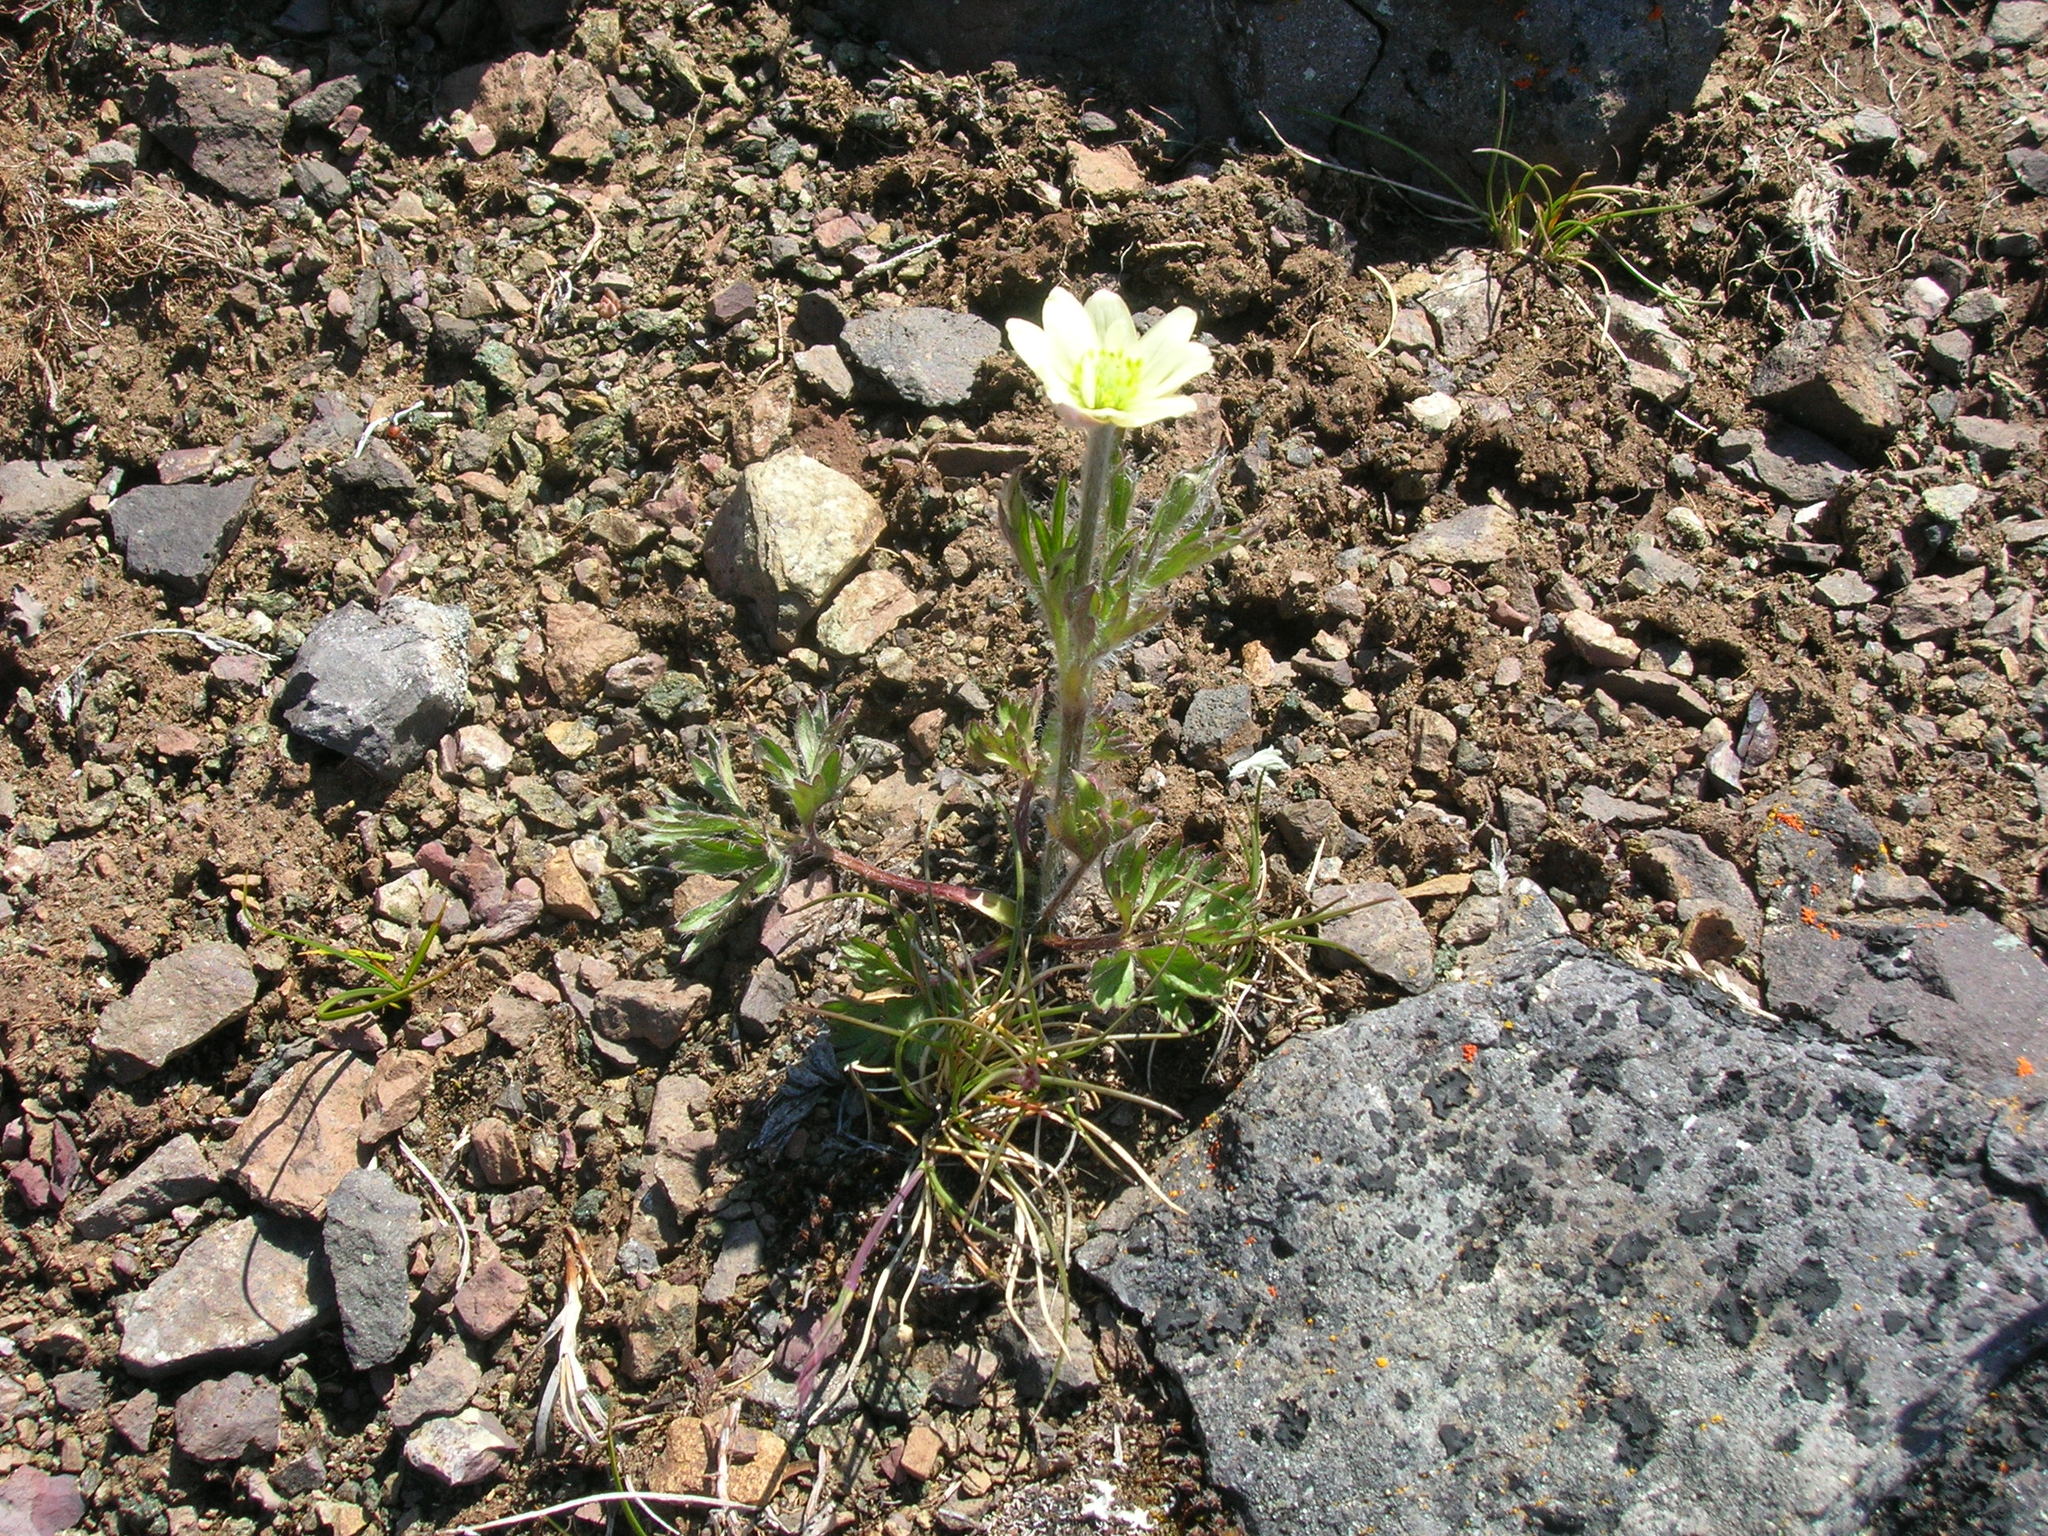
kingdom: Plantae
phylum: Tracheophyta
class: Magnoliopsida
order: Ranunculales
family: Ranunculaceae
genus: Anemone
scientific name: Anemone drummondii
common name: Drummond's anemone
